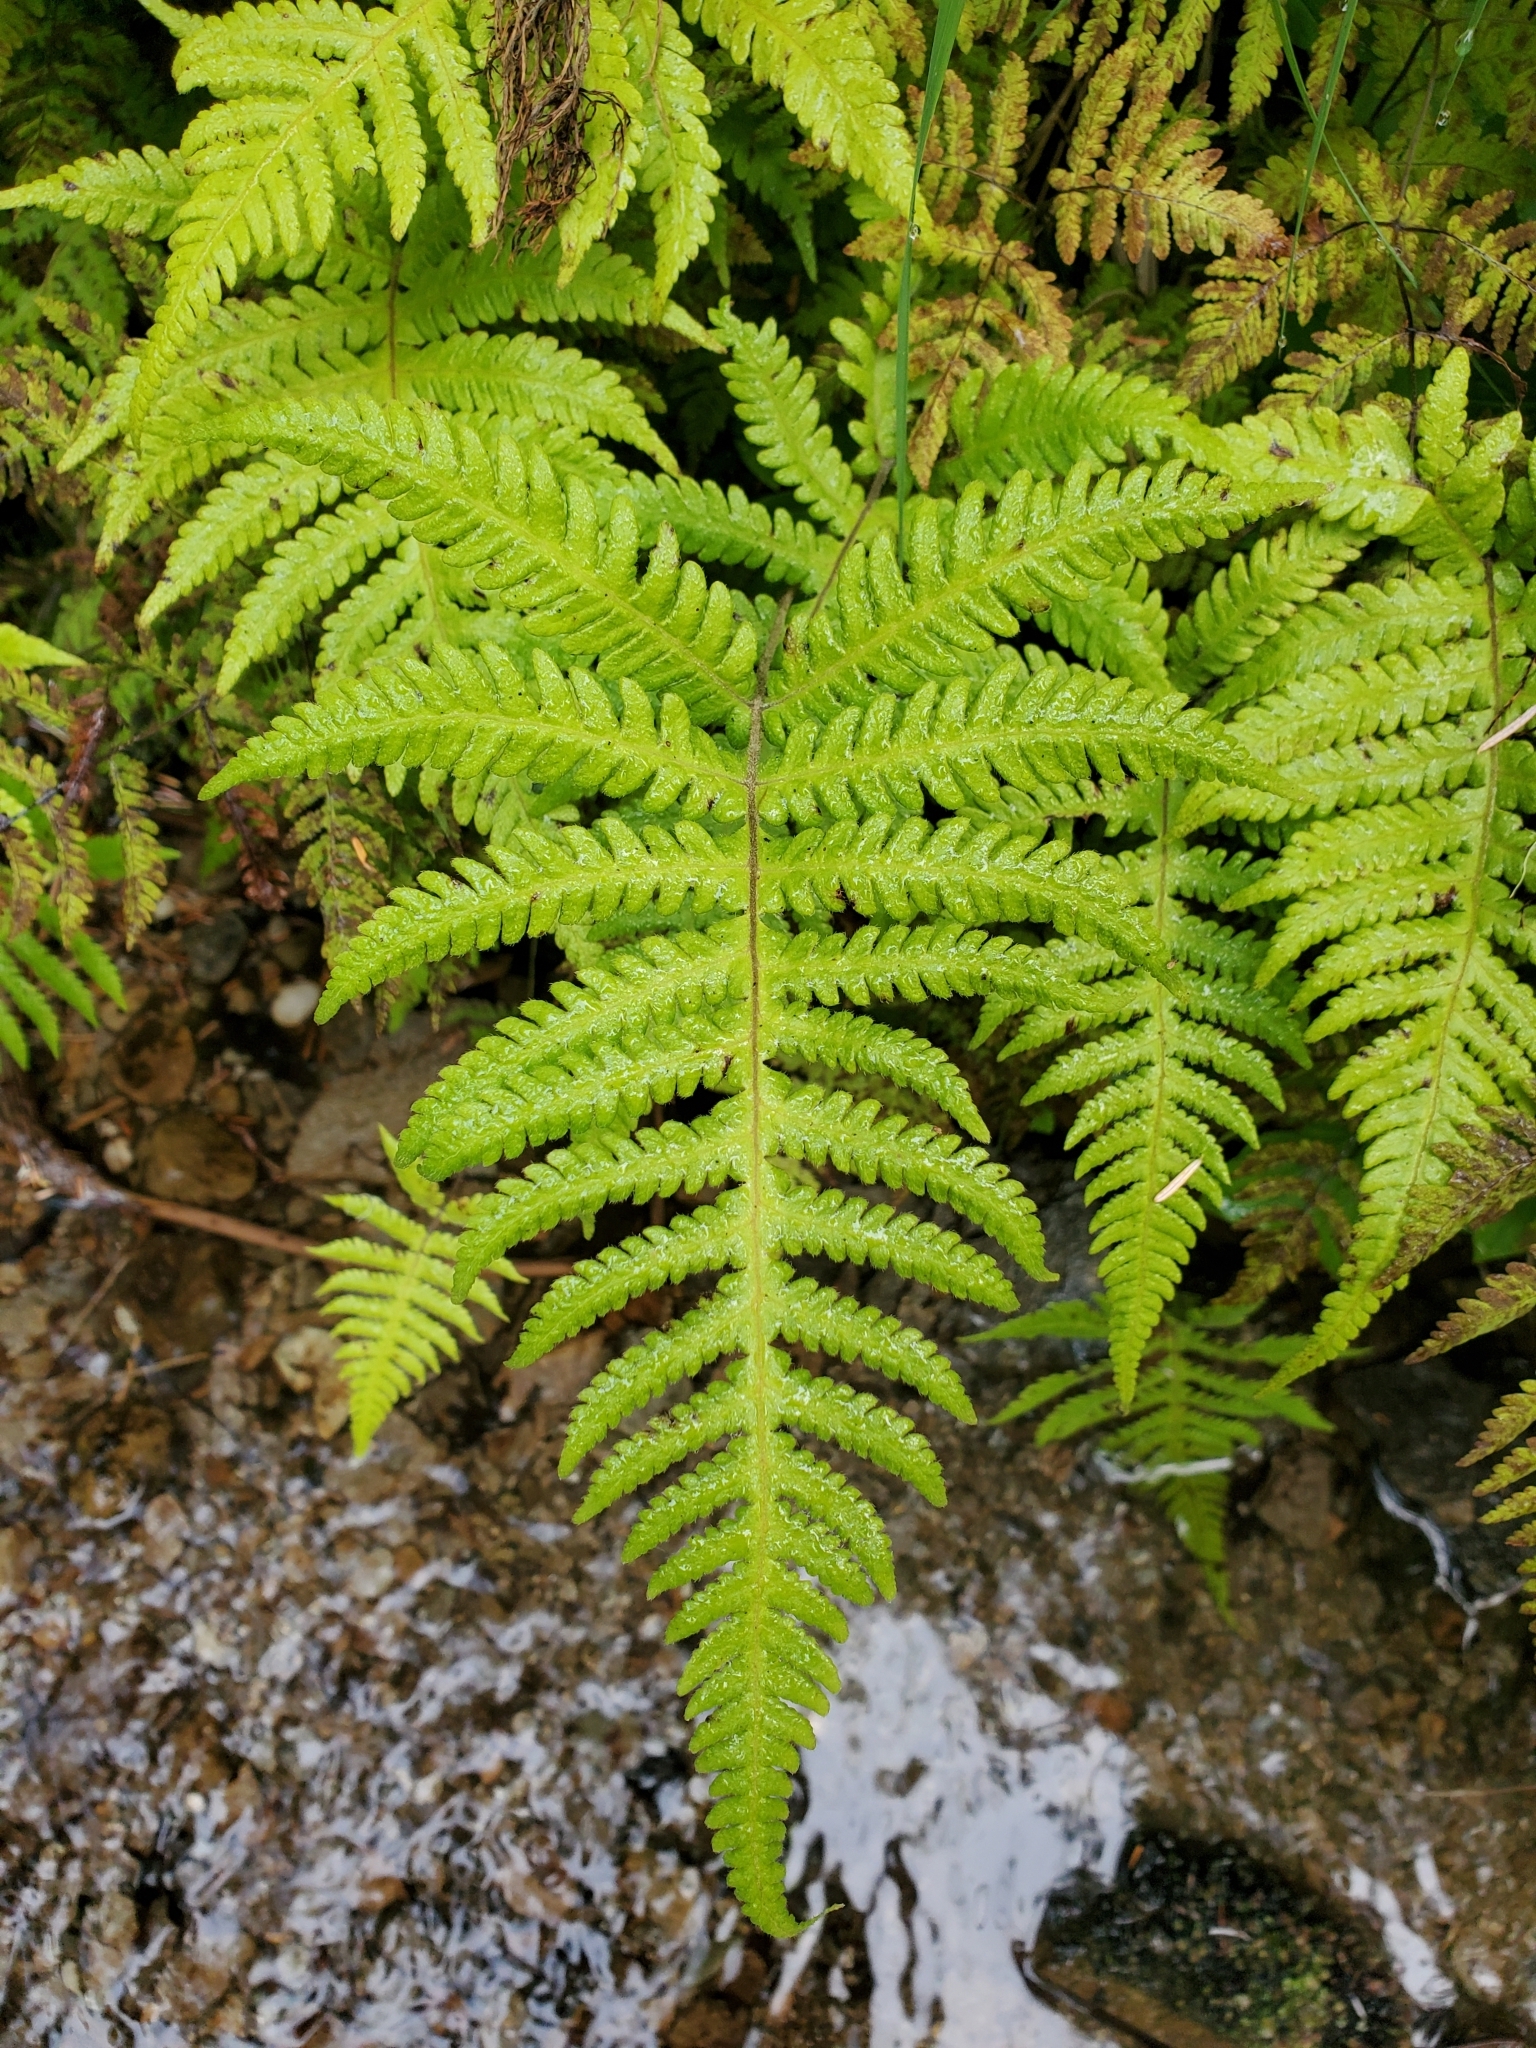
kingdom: Plantae
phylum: Tracheophyta
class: Polypodiopsida
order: Polypodiales
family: Thelypteridaceae
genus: Phegopteris
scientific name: Phegopteris connectilis
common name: Beech fern
